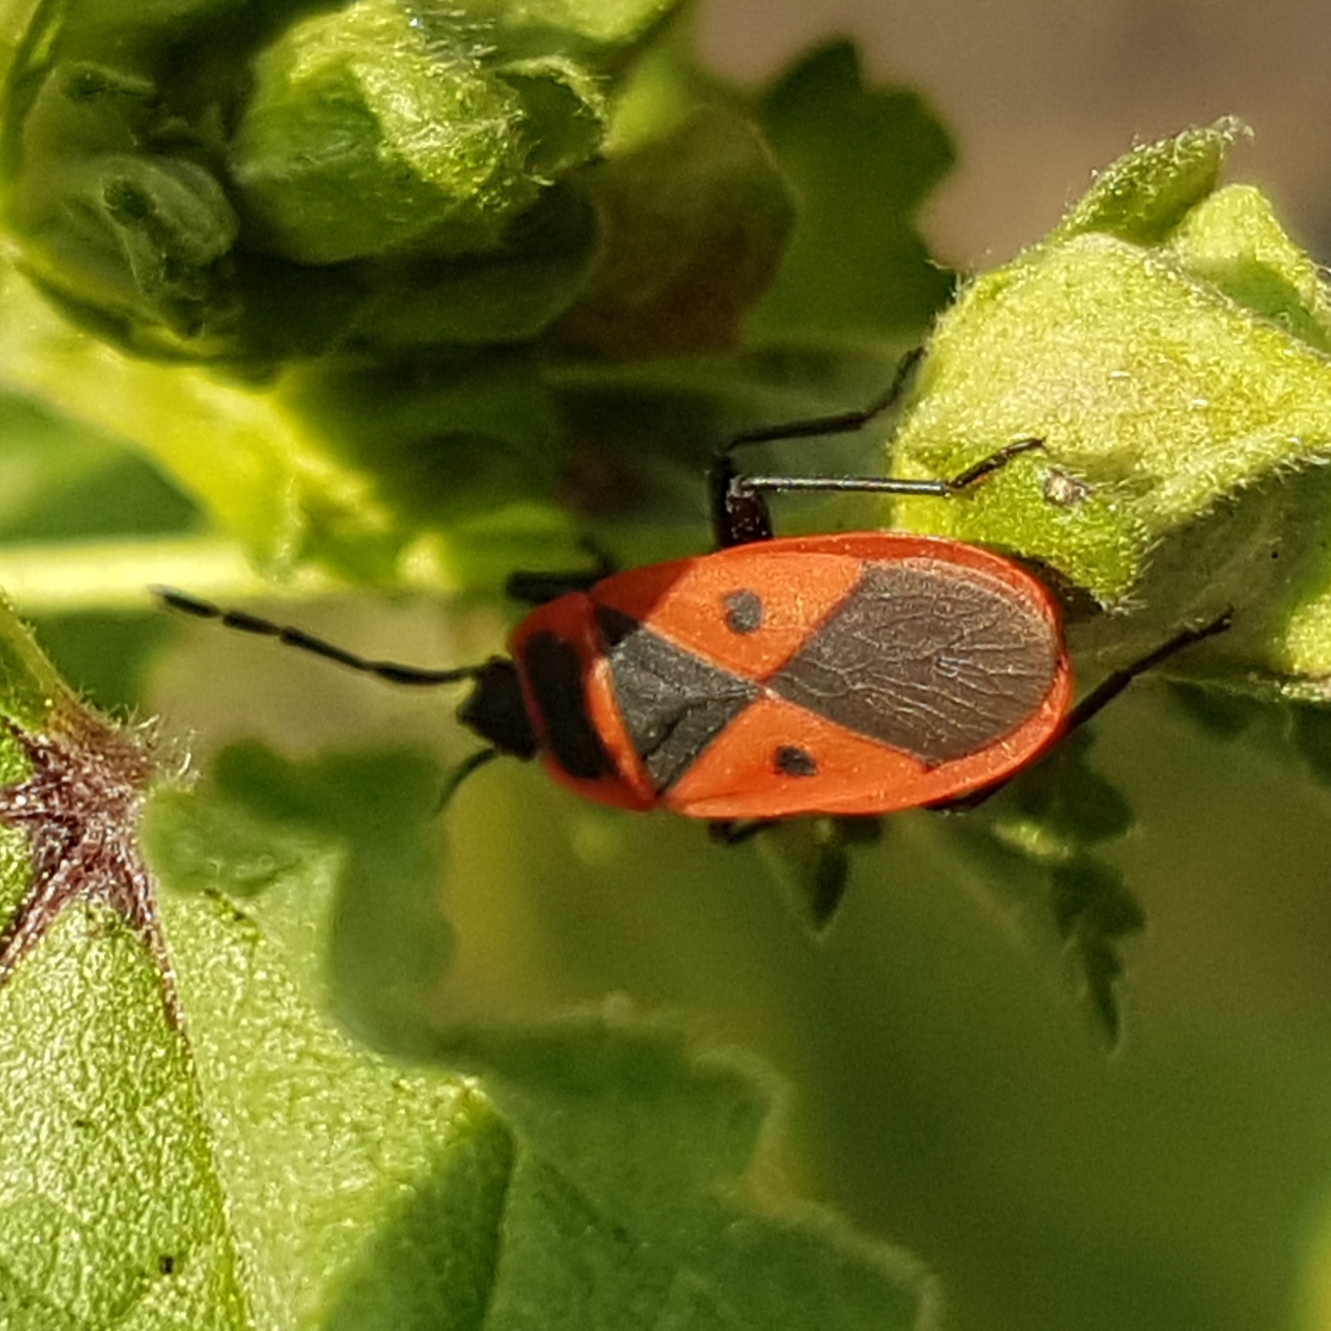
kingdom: Animalia
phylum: Arthropoda
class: Insecta
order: Hemiptera
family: Pyrrhocoridae
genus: Scantius
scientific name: Scantius aegyptius
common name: Red bug
